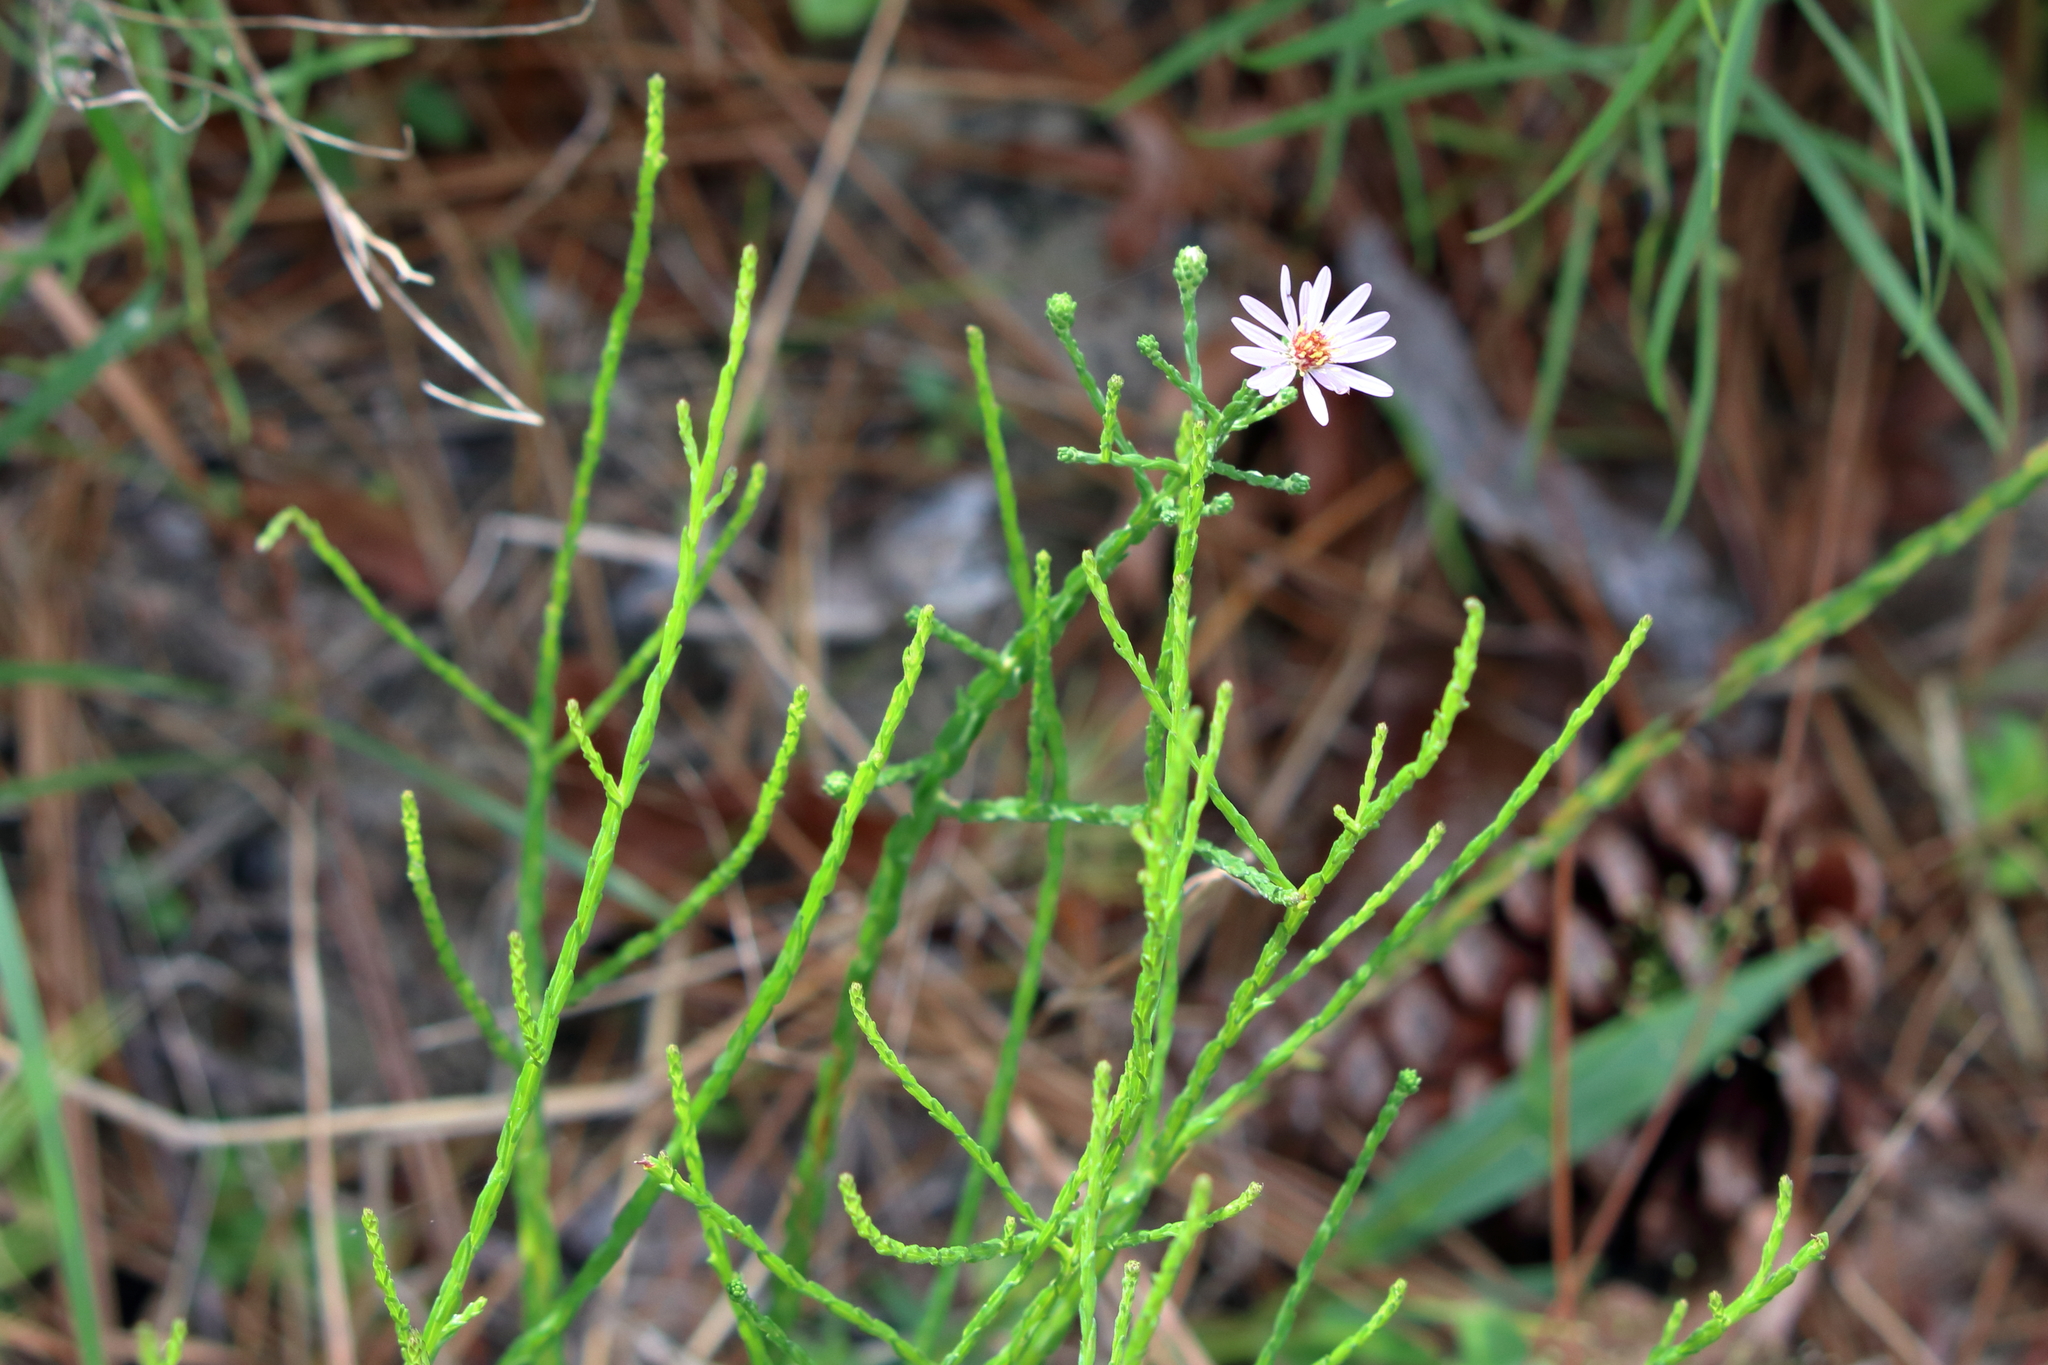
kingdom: Plantae
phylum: Tracheophyta
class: Magnoliopsida
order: Asterales
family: Asteraceae
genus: Symphyotrichum
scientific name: Symphyotrichum adnatum
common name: Scale-leaf aster
